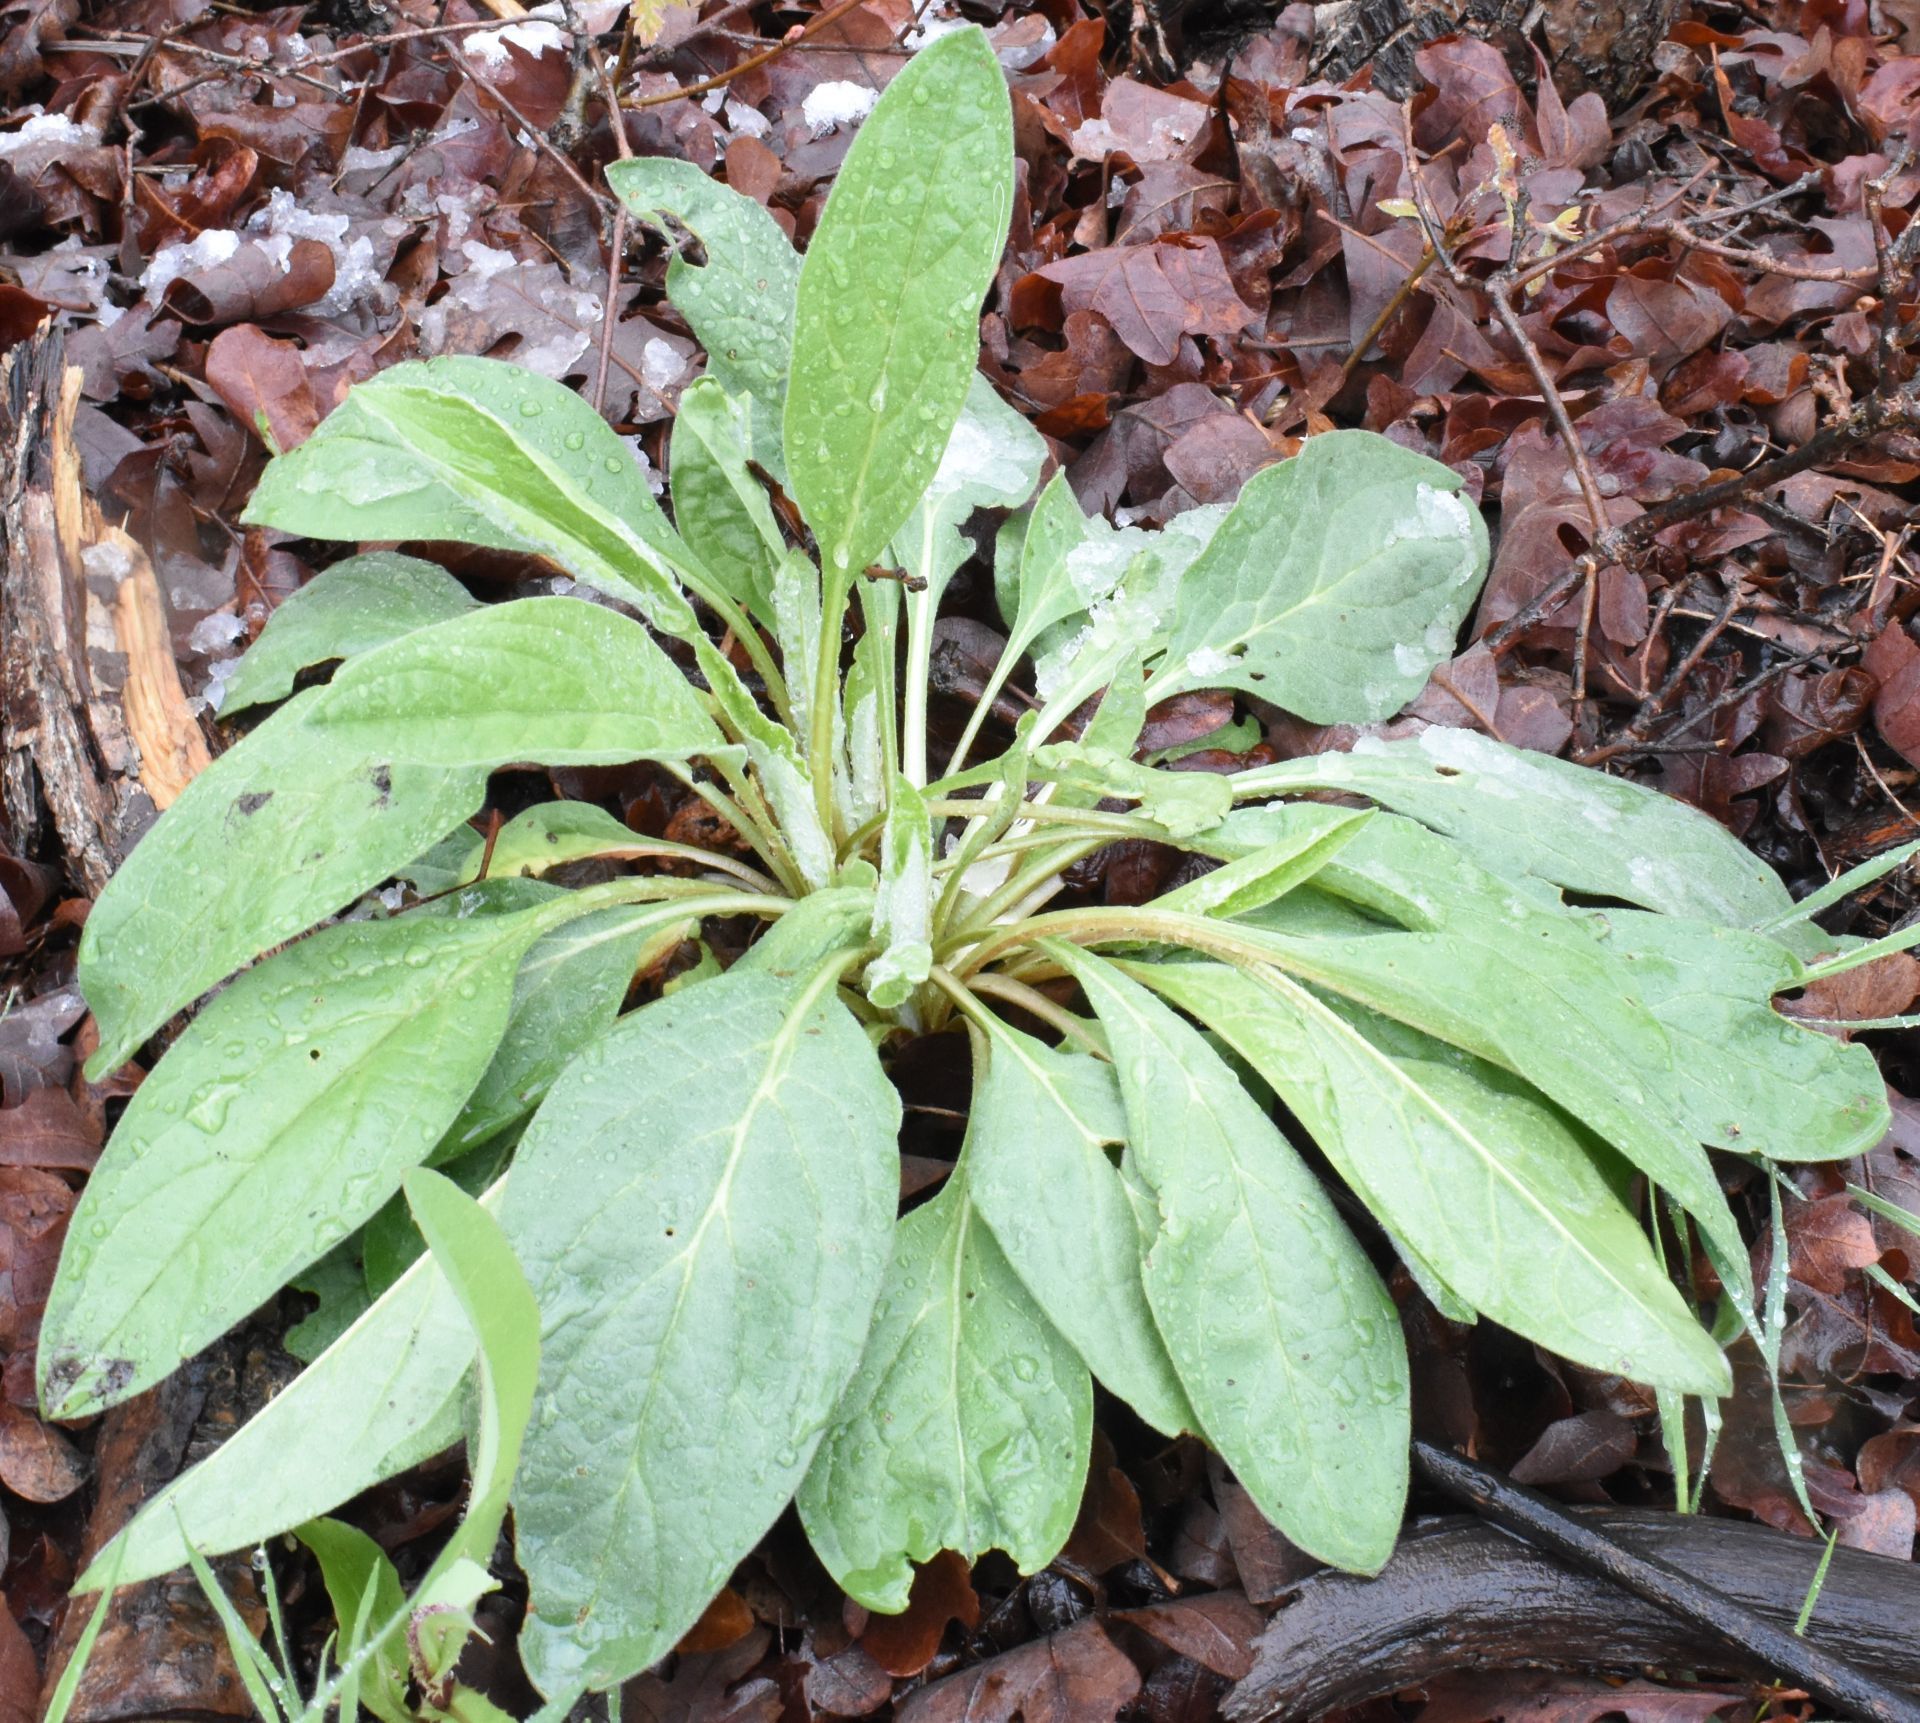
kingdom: Plantae
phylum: Tracheophyta
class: Magnoliopsida
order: Boraginales
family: Boraginaceae
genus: Cynoglossum
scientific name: Cynoglossum officinale
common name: Hound's-tongue
